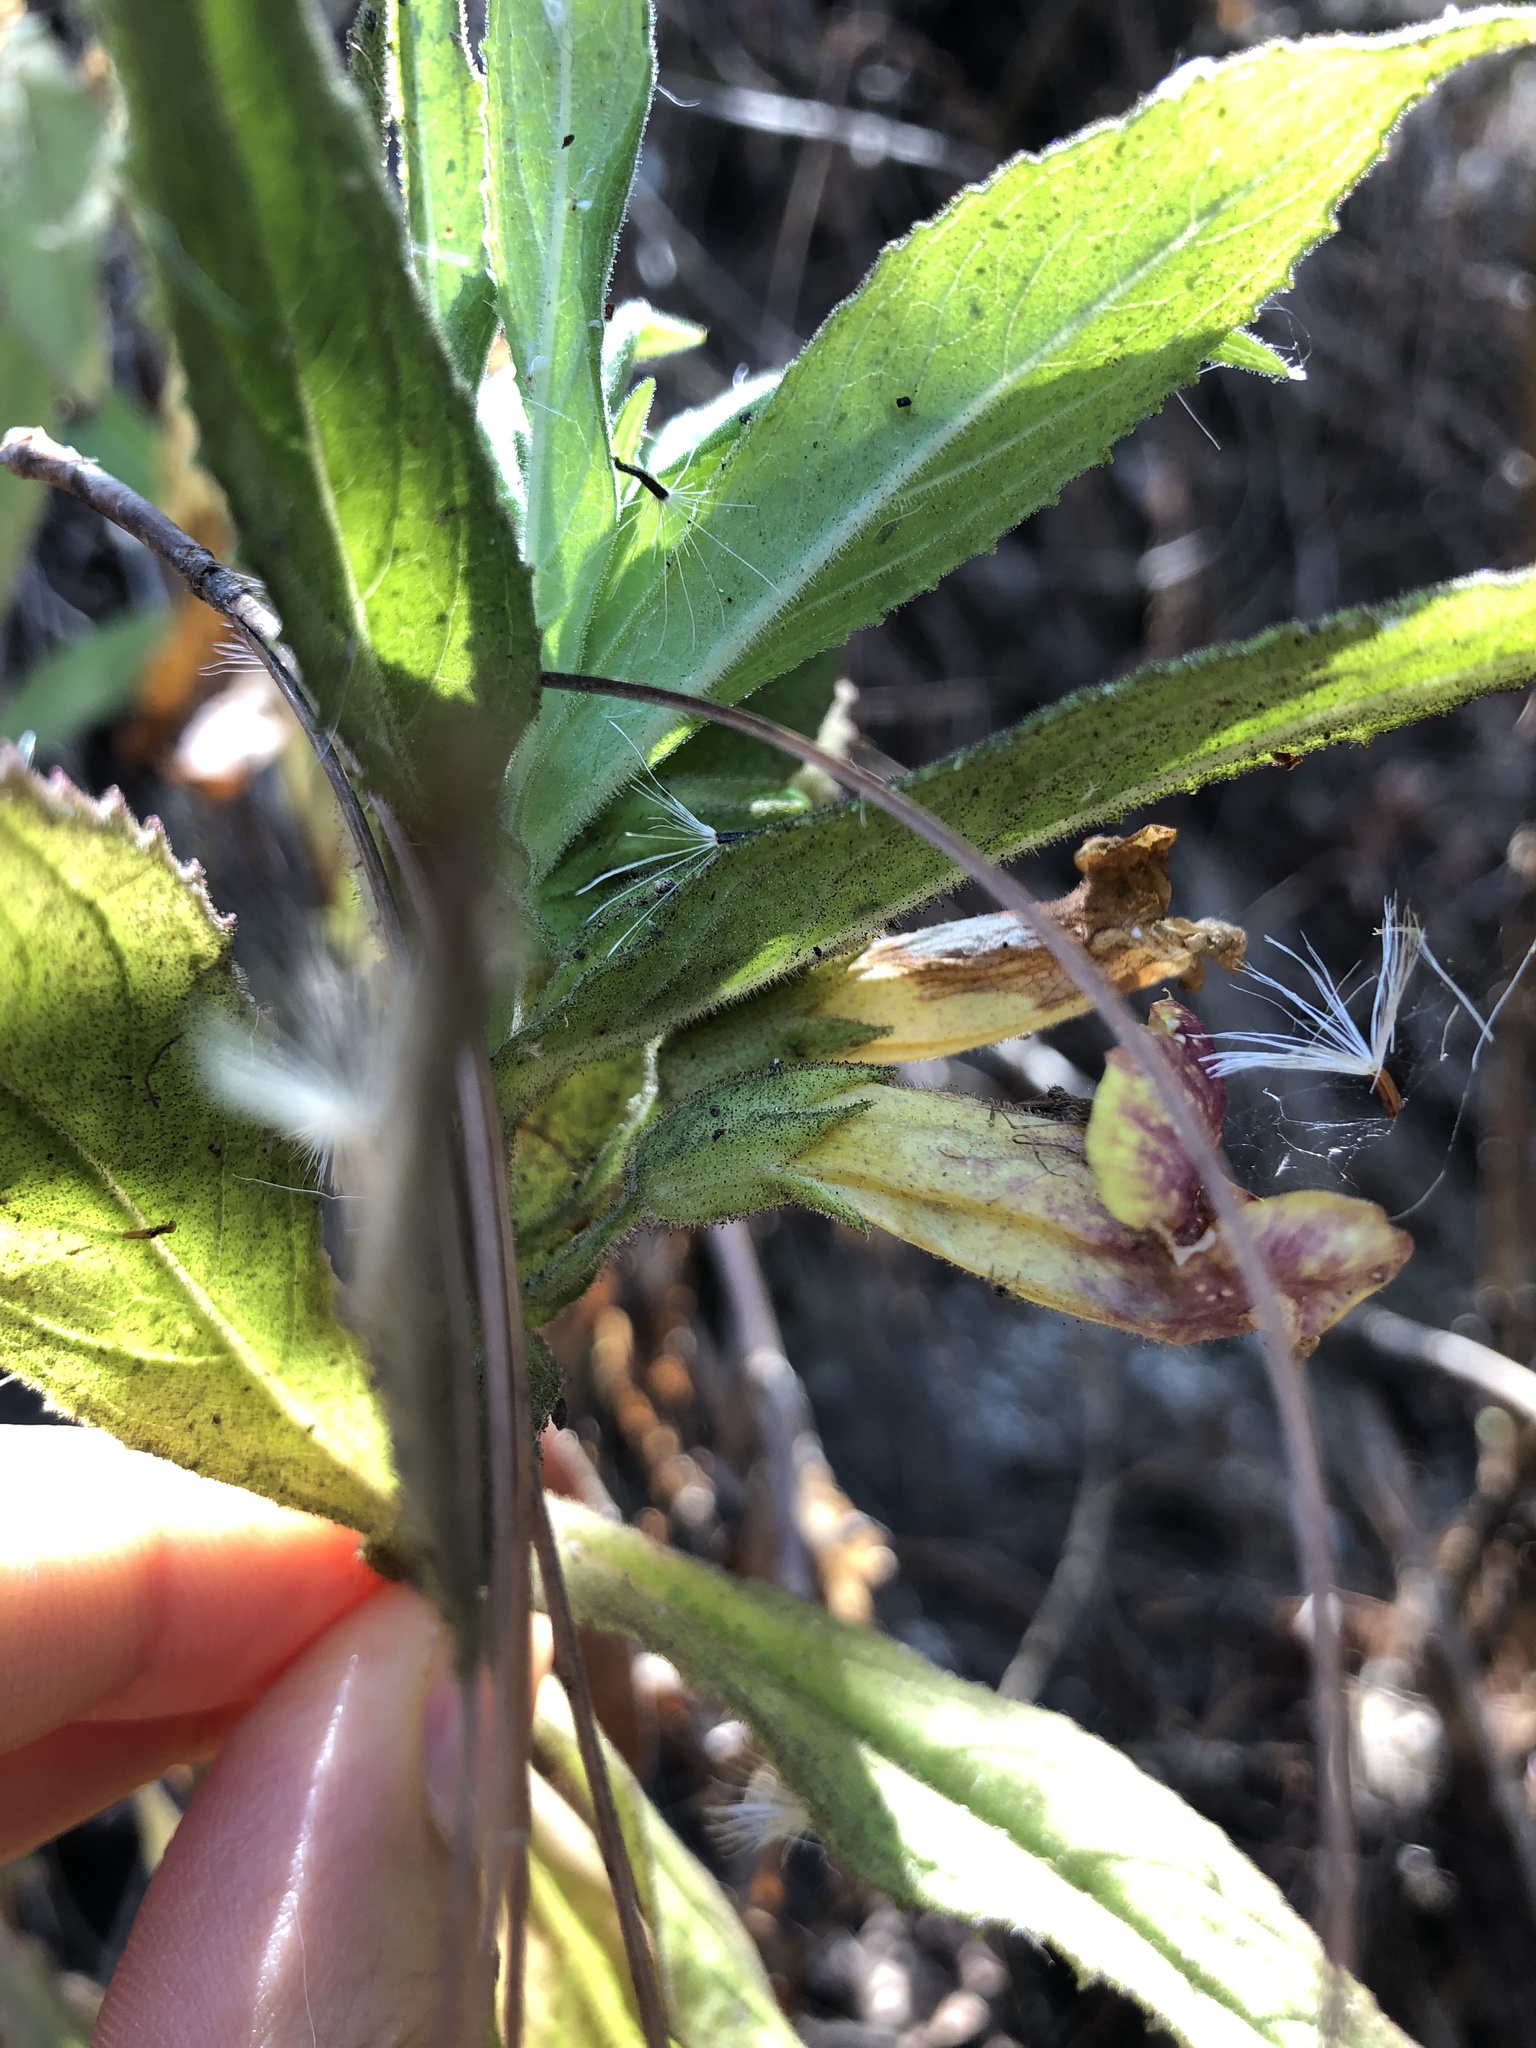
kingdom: Plantae
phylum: Tracheophyta
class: Magnoliopsida
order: Lamiales
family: Phrymaceae
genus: Hemichaena
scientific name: Hemichaena fruticosa
